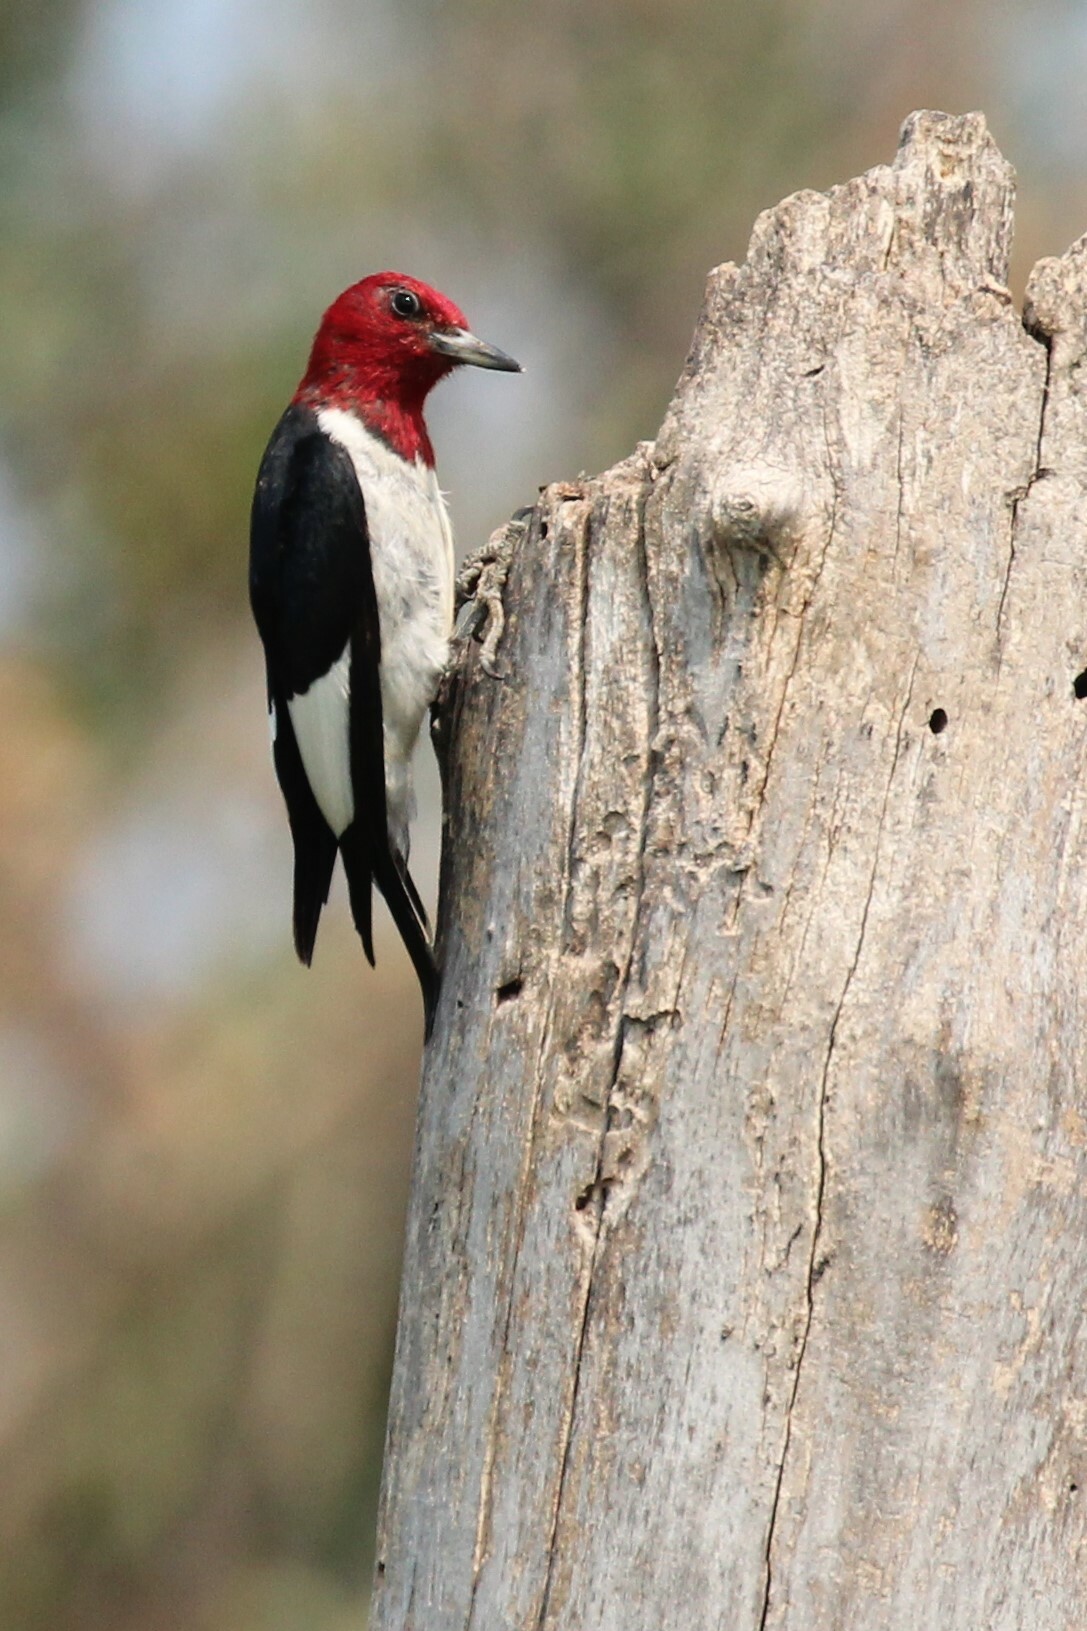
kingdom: Animalia
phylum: Chordata
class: Aves
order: Piciformes
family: Picidae
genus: Melanerpes
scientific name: Melanerpes erythrocephalus
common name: Red-headed woodpecker
